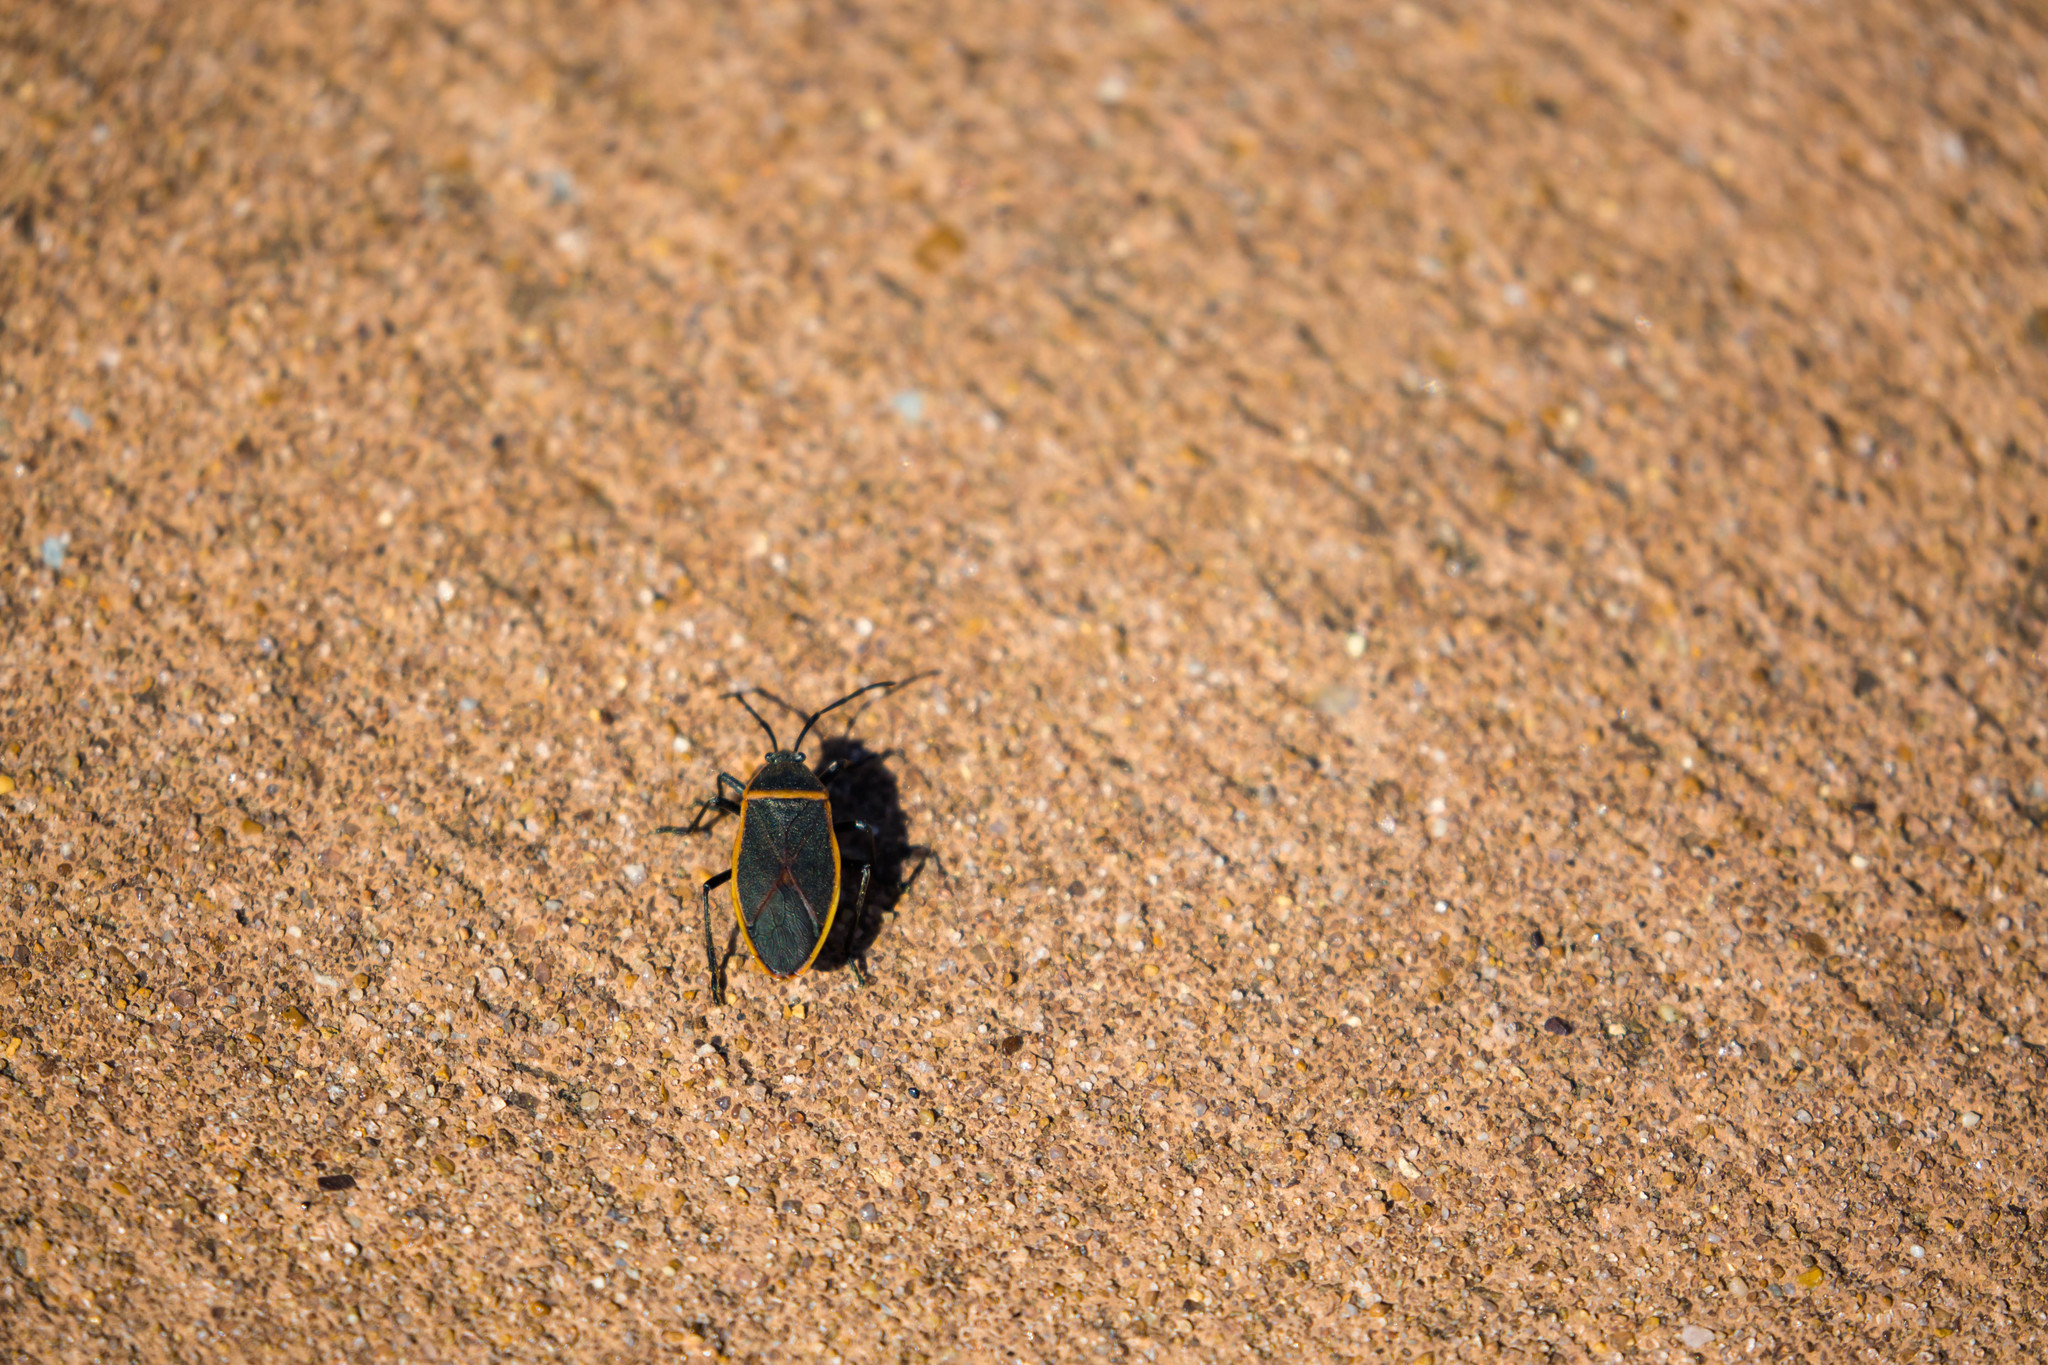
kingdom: Animalia
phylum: Arthropoda
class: Insecta
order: Hemiptera
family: Largidae
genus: Largus
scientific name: Largus succinctus
